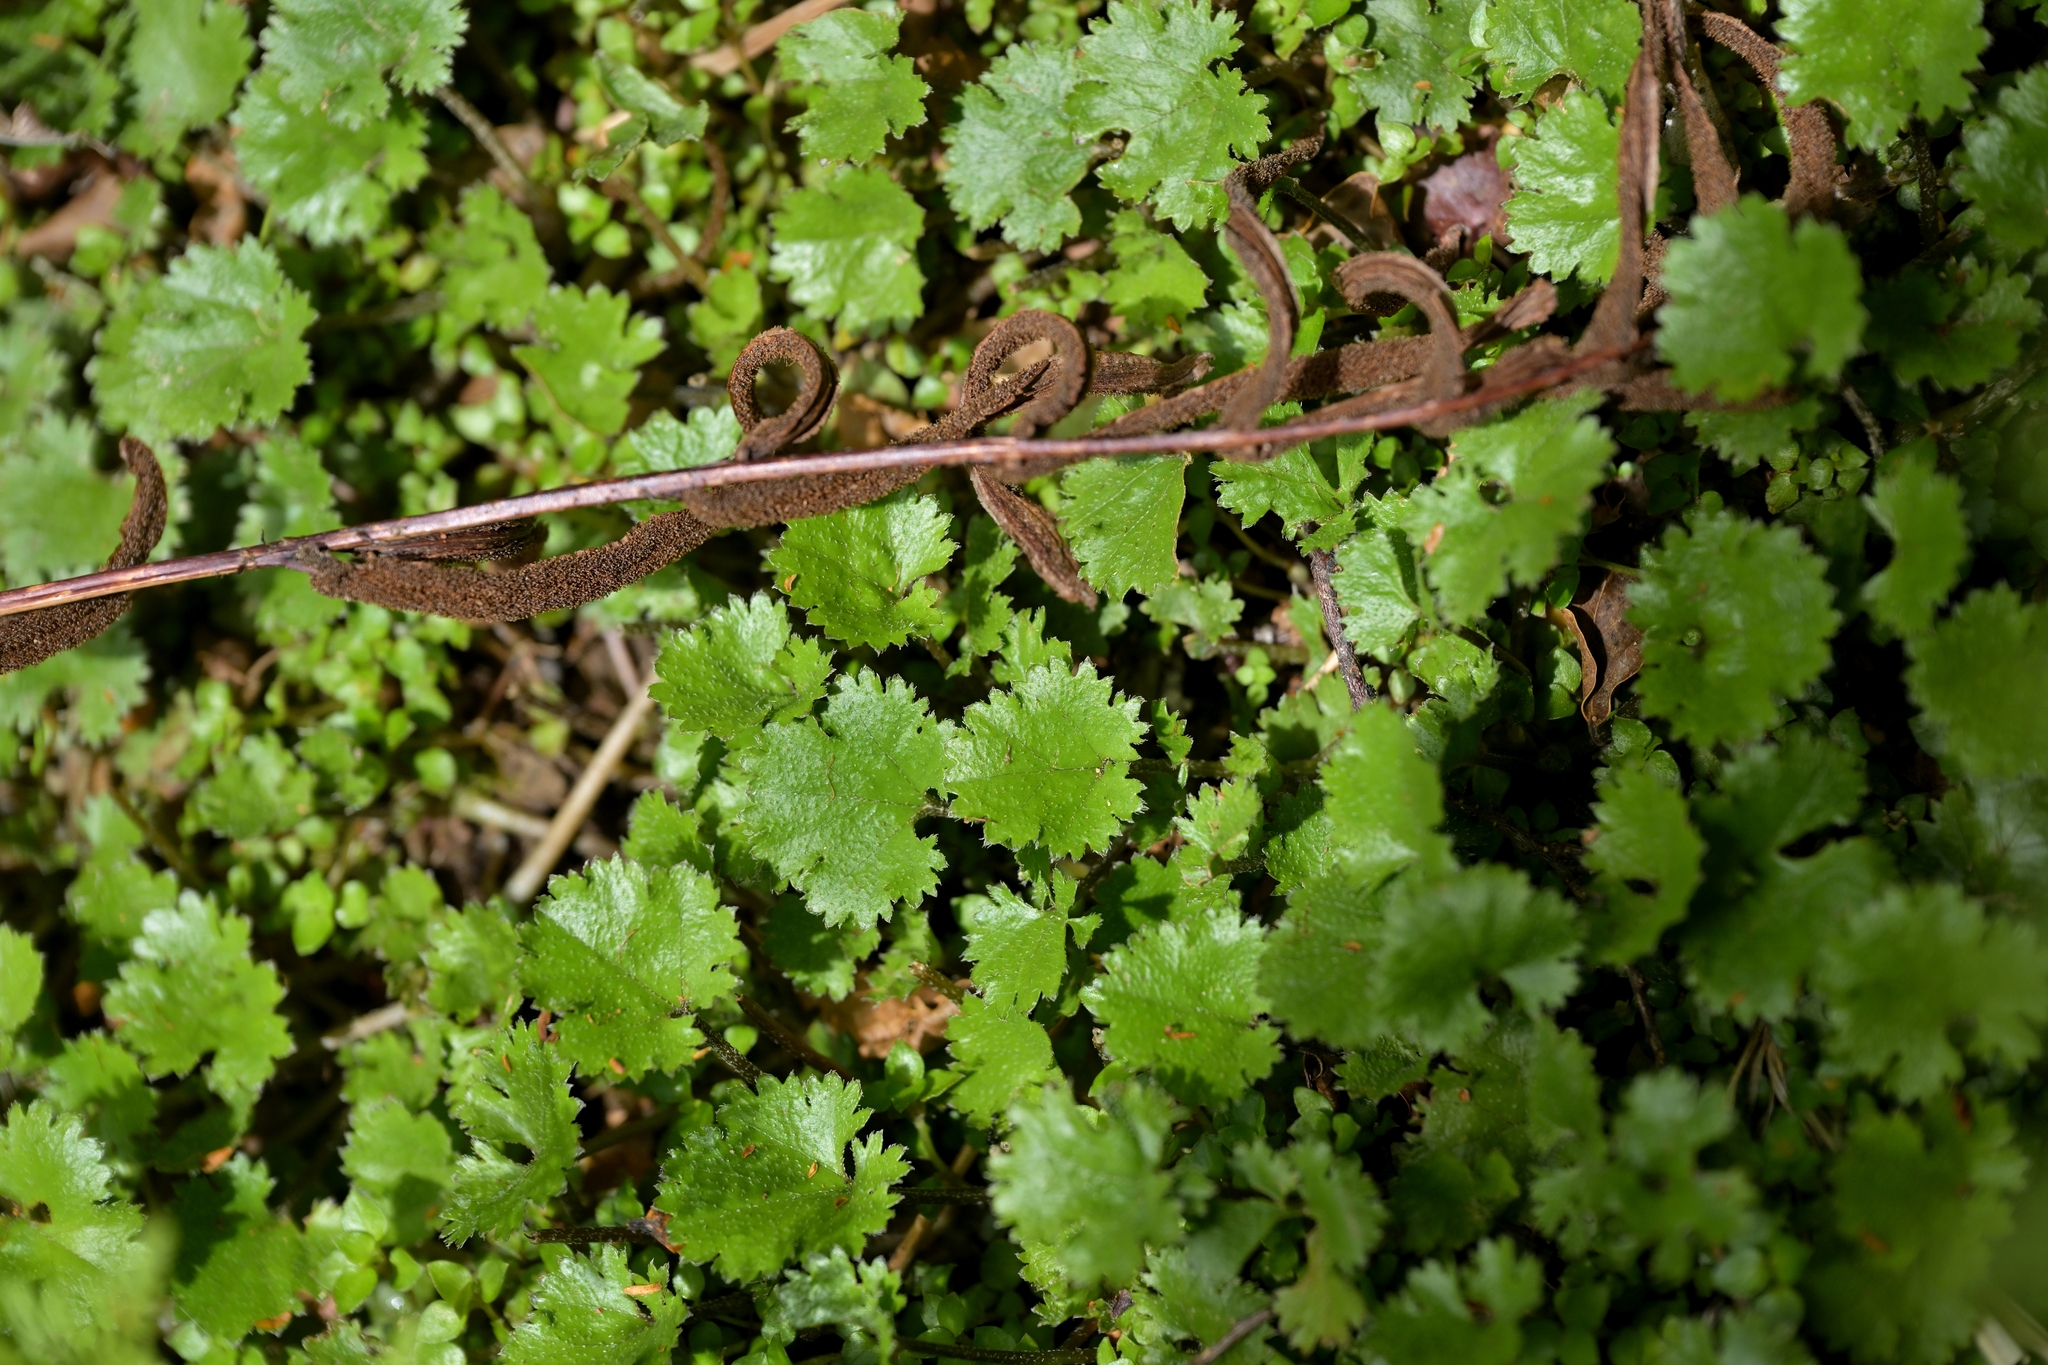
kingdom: Plantae
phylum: Tracheophyta
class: Magnoliopsida
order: Gunnerales
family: Gunneraceae
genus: Gunnera
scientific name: Gunnera monoica
